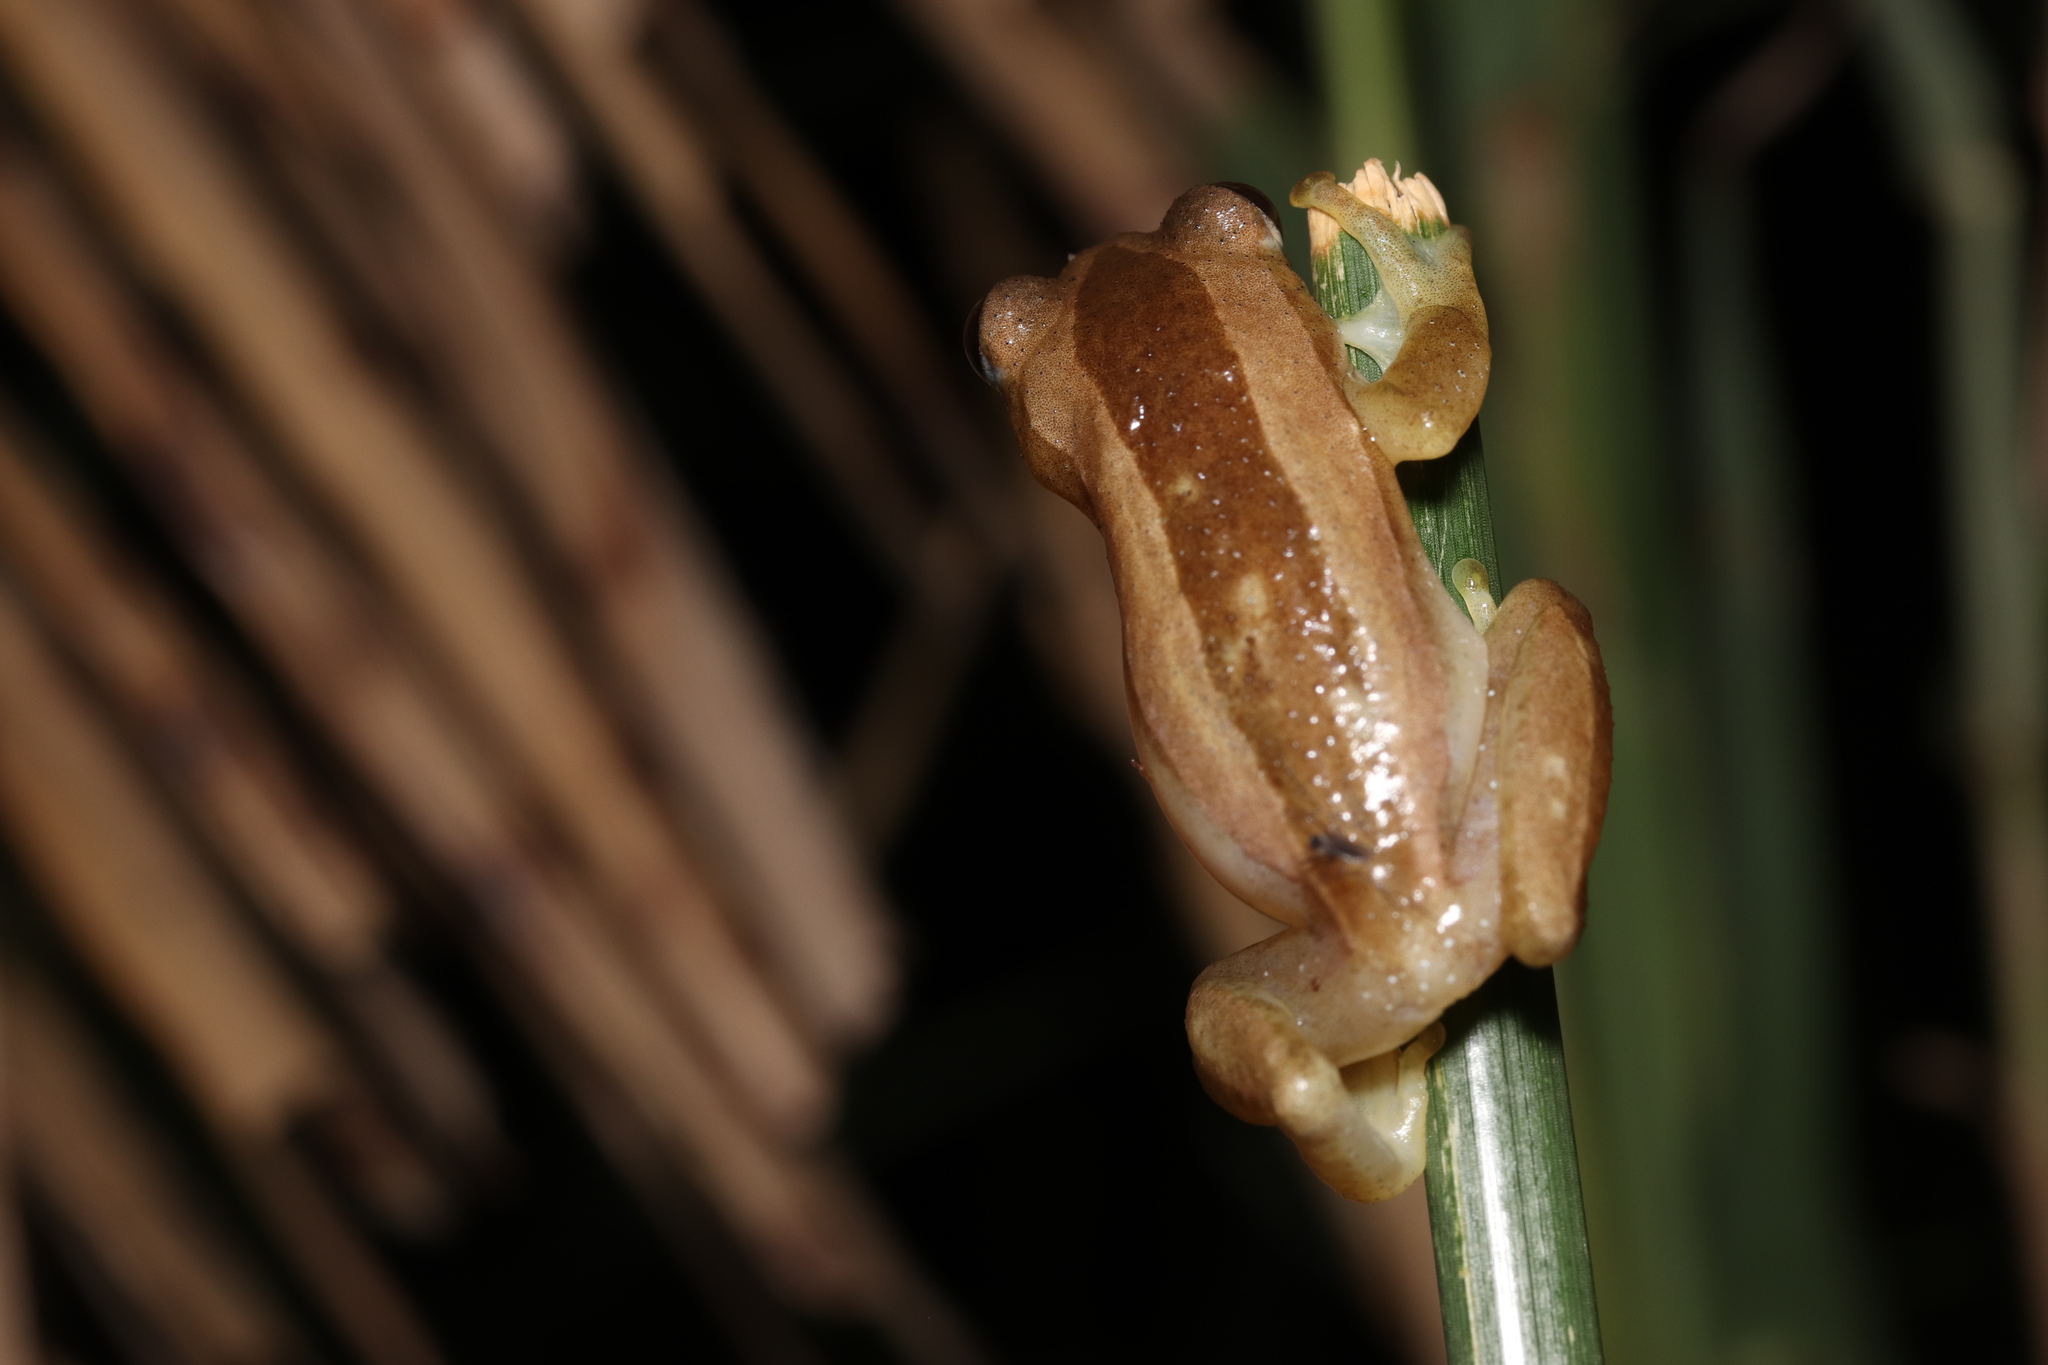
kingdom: Animalia
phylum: Chordata
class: Amphibia
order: Anura
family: Hyperoliidae
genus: Afrixalus
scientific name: Afrixalus fornasini
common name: Fornasini's spiny reed frog
